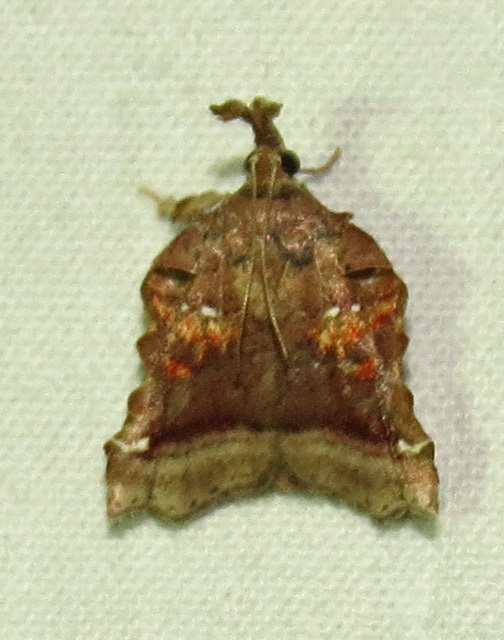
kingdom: Animalia
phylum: Arthropoda
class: Insecta
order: Lepidoptera
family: Pyralidae
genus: Clydonopteron
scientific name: Clydonopteron sacculana
